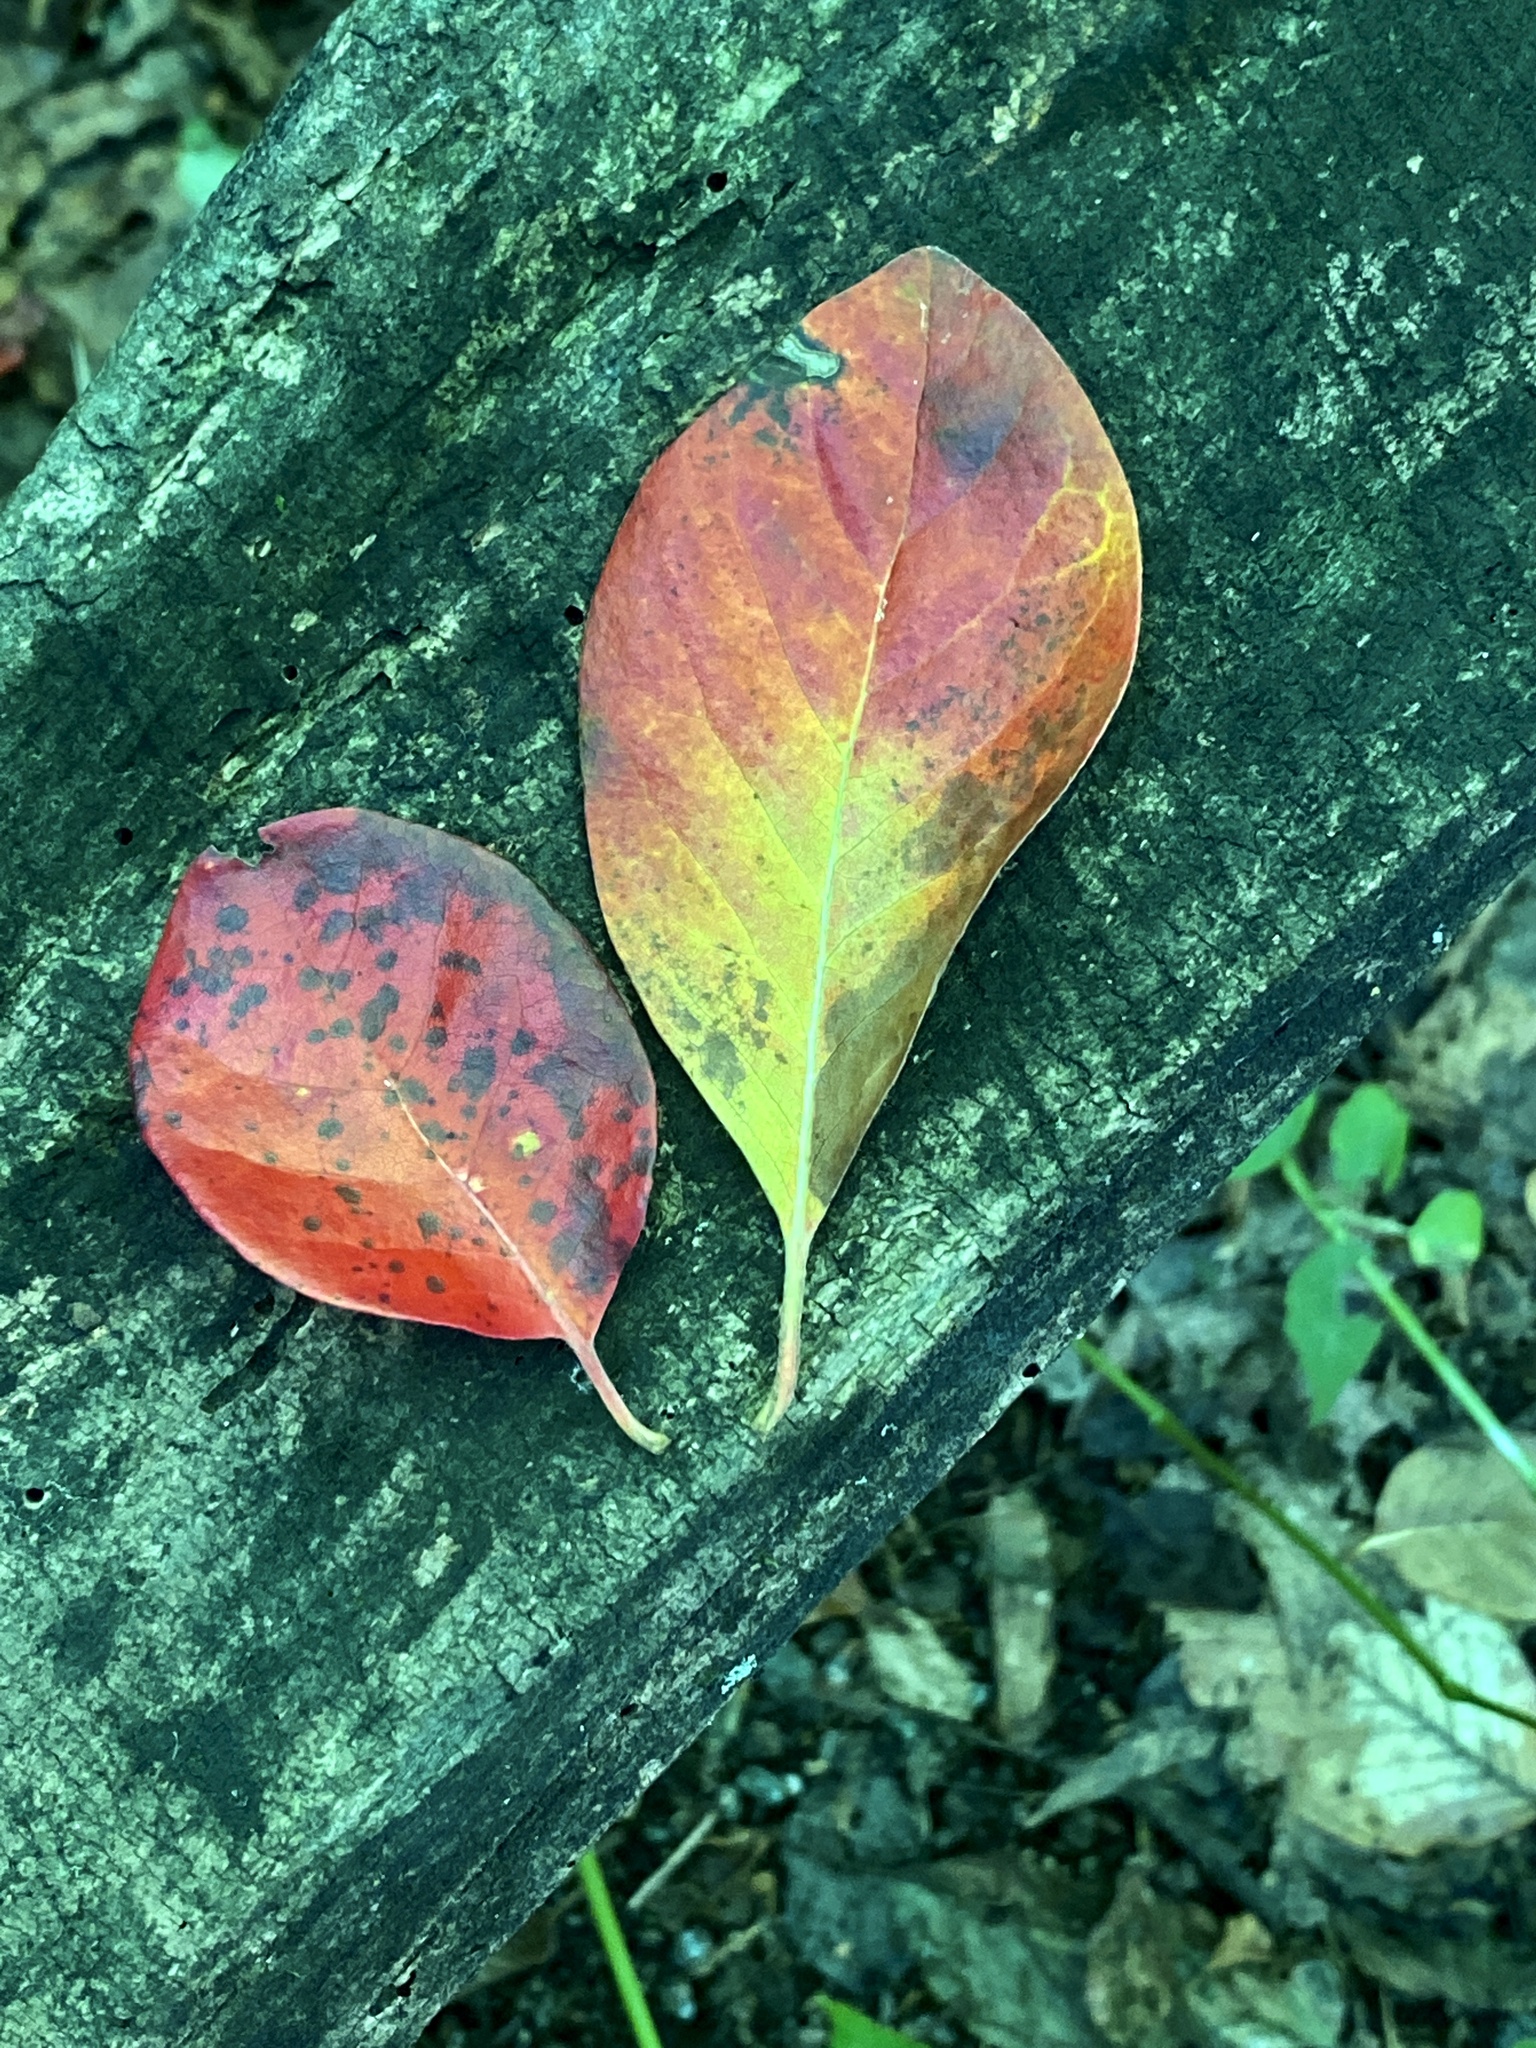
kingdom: Plantae
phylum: Tracheophyta
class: Magnoliopsida
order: Cornales
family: Nyssaceae
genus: Nyssa
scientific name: Nyssa sylvatica
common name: Black tupelo
